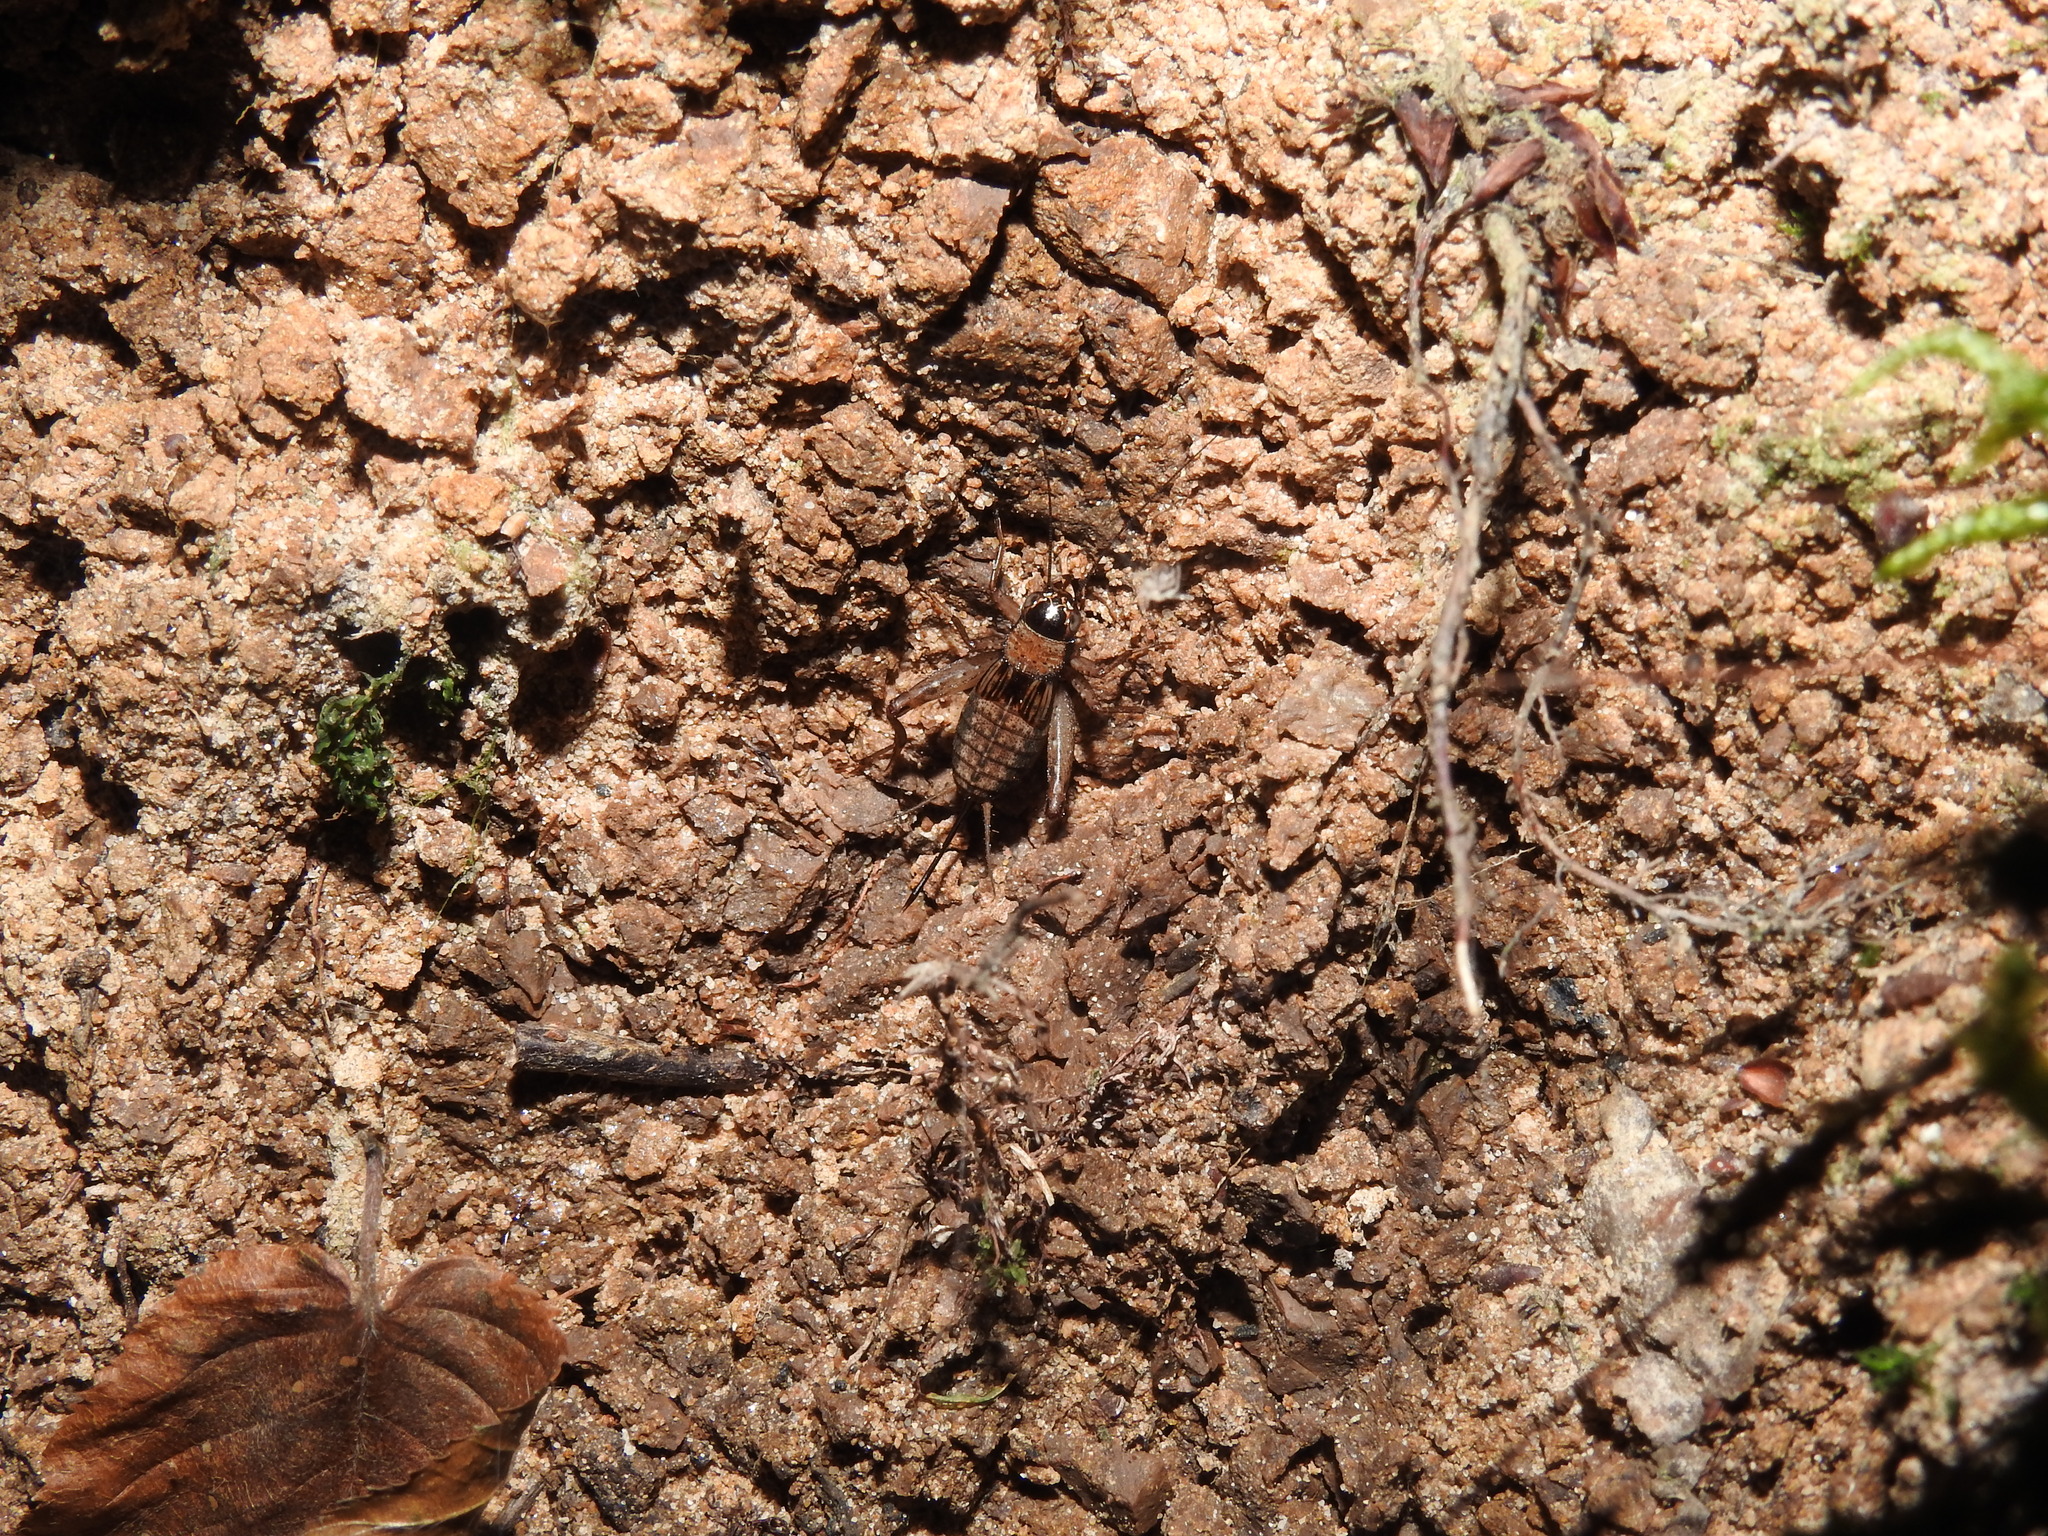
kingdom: Animalia
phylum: Arthropoda
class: Insecta
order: Orthoptera
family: Trigonidiidae
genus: Nemobius
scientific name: Nemobius sylvestris
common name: Wood-cricket
